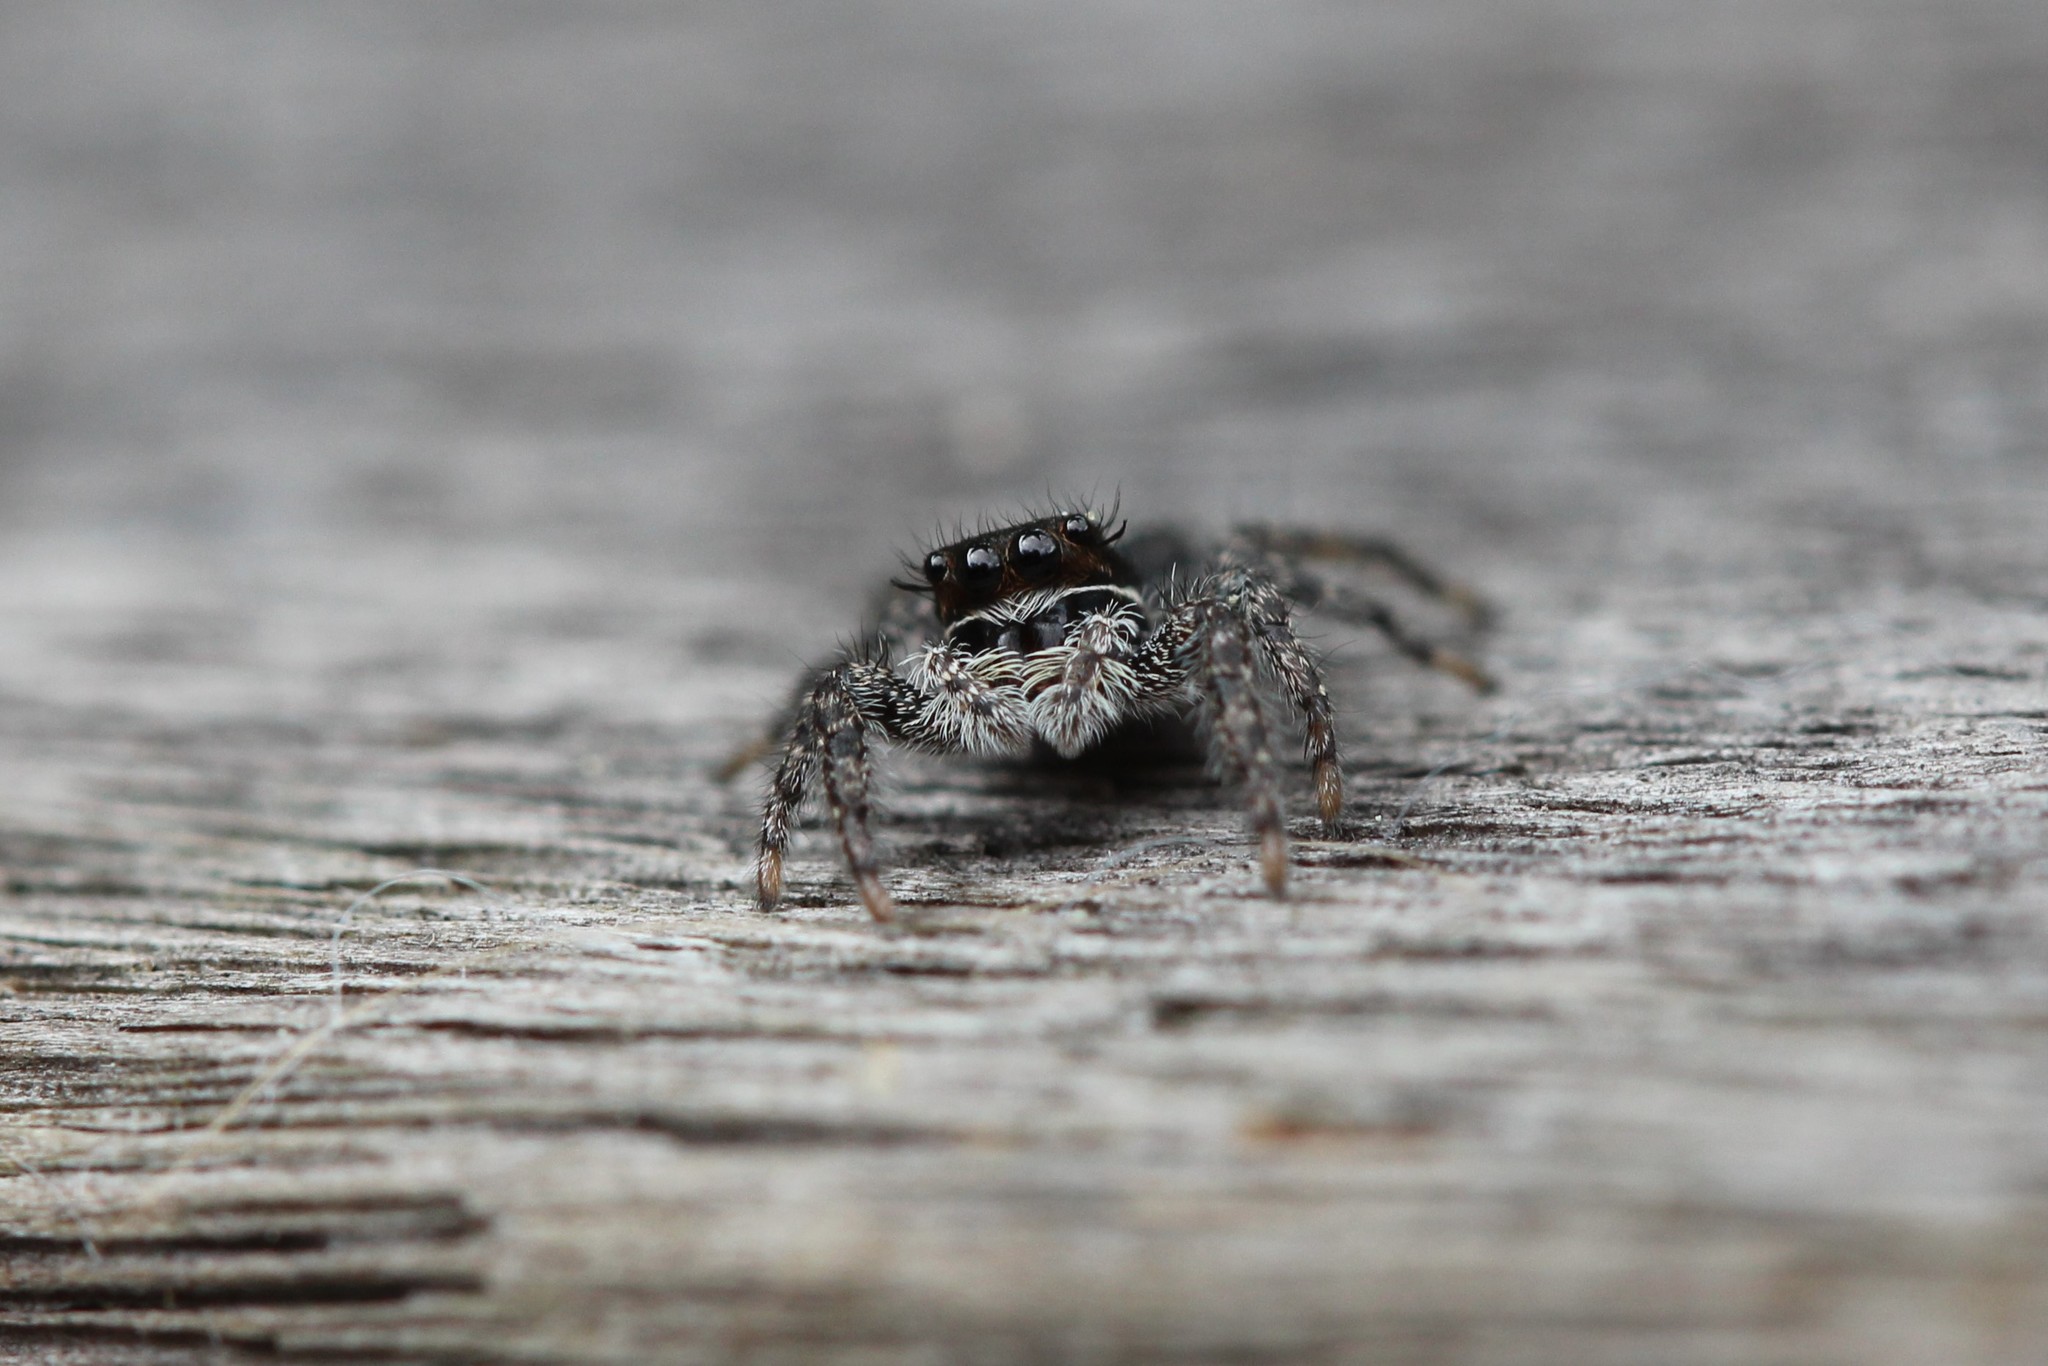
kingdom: Animalia
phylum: Arthropoda
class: Arachnida
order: Araneae
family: Salticidae
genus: Platycryptus
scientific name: Platycryptus californicus
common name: Jumping spiders
